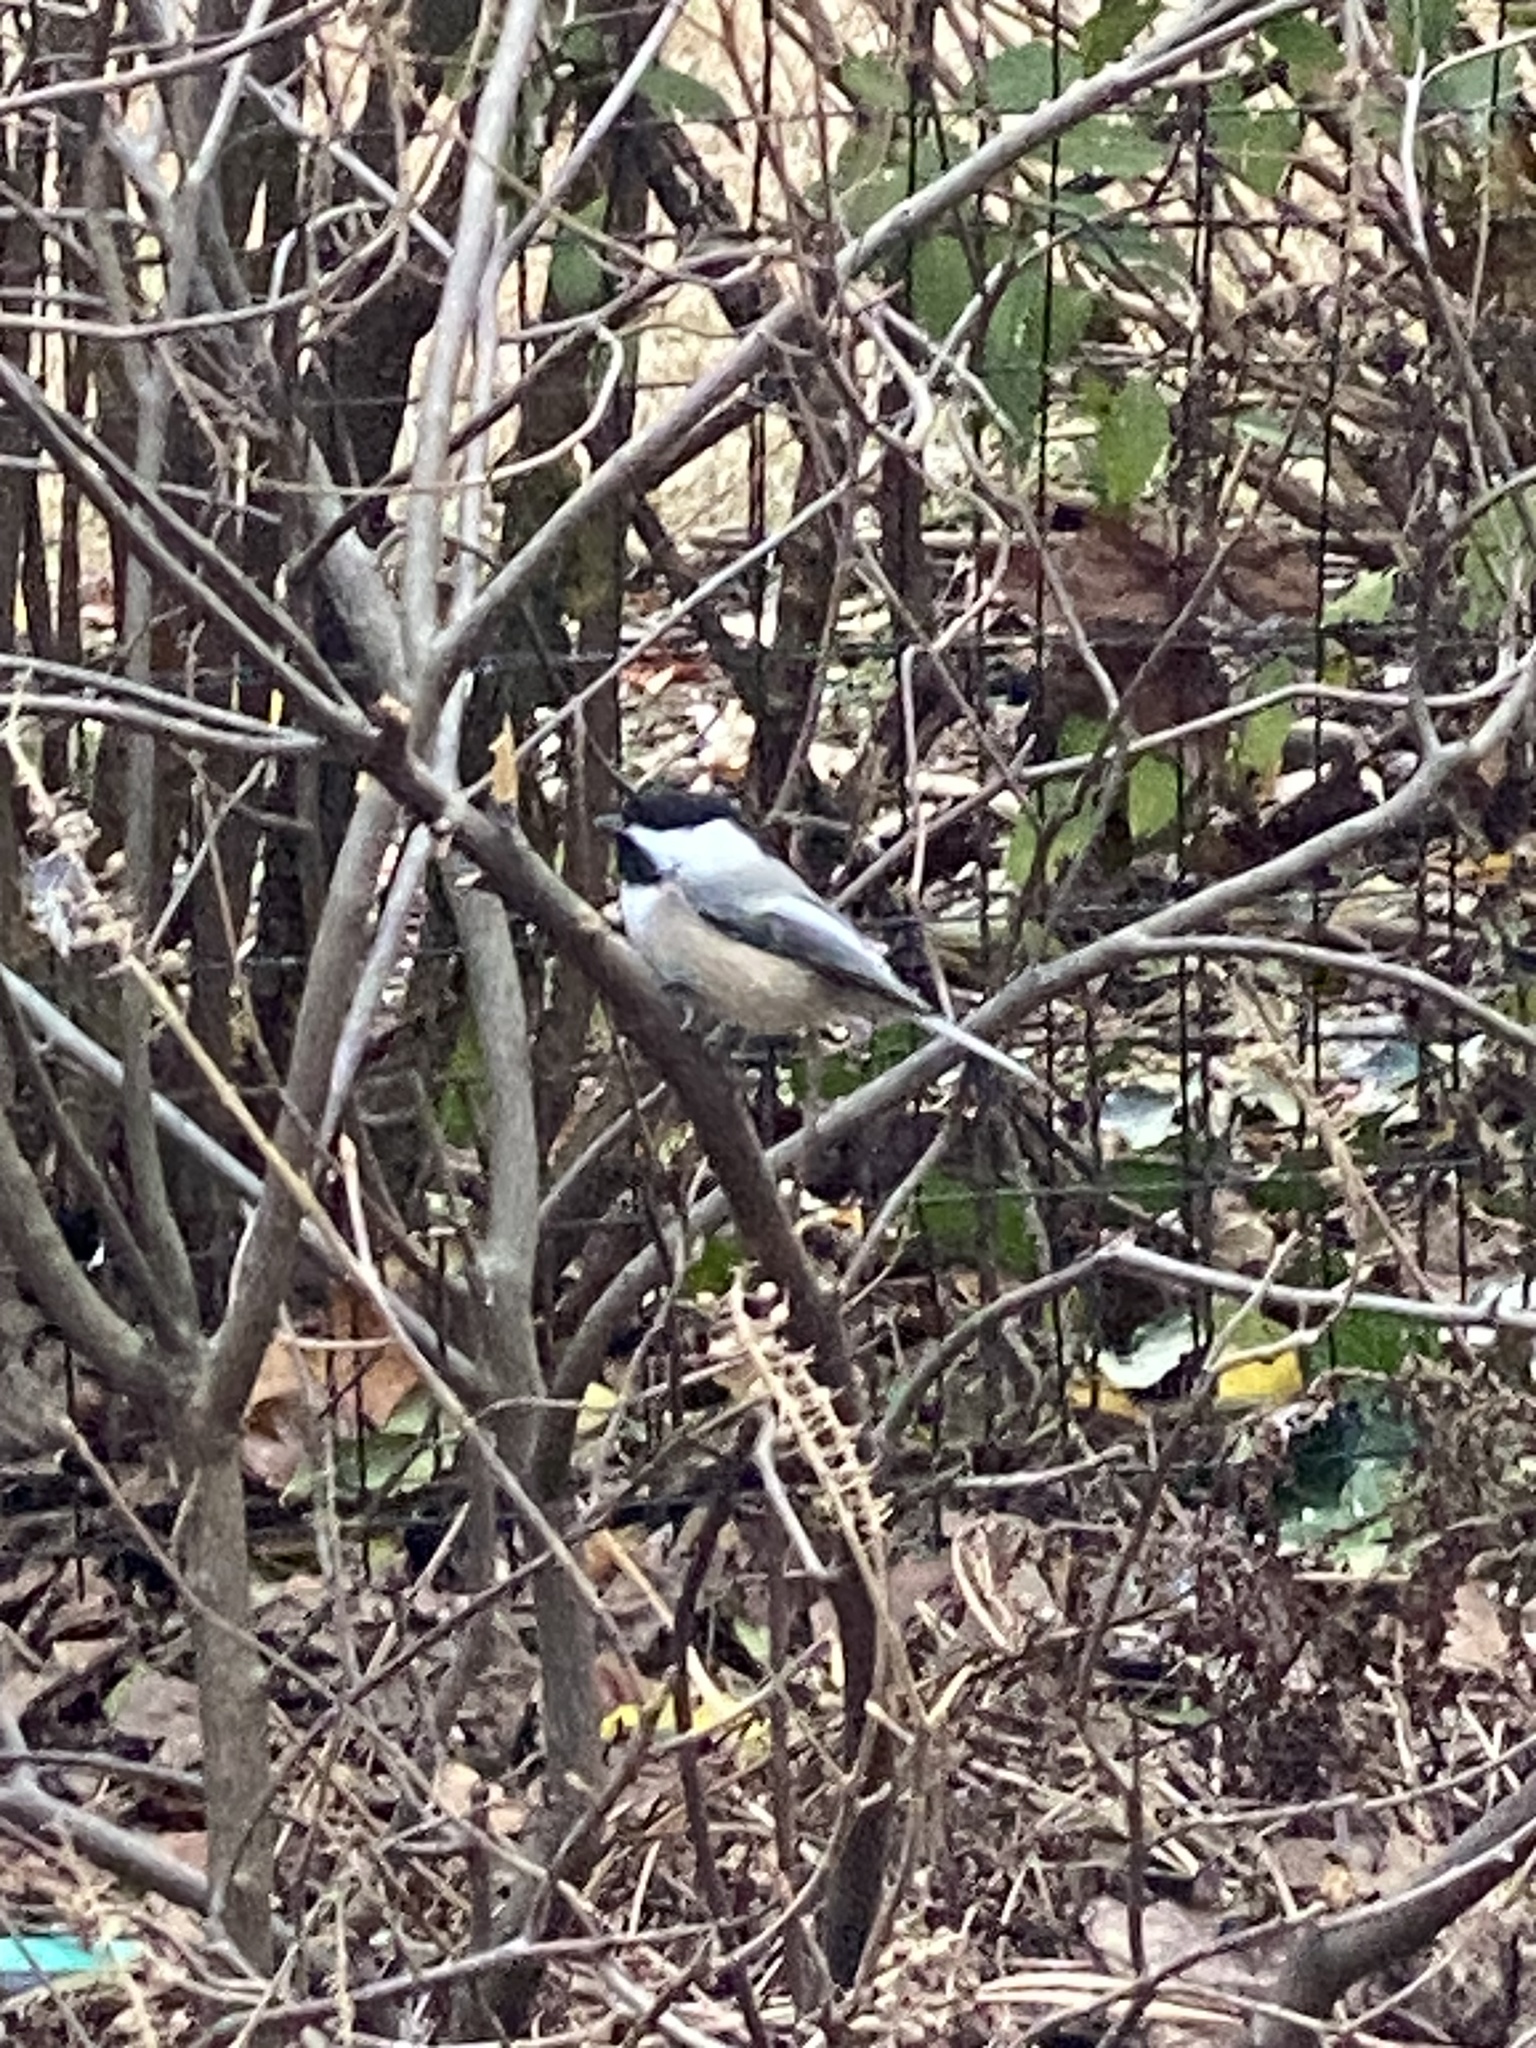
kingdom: Animalia
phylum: Chordata
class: Aves
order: Passeriformes
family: Paridae
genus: Poecile
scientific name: Poecile atricapillus
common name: Black-capped chickadee
